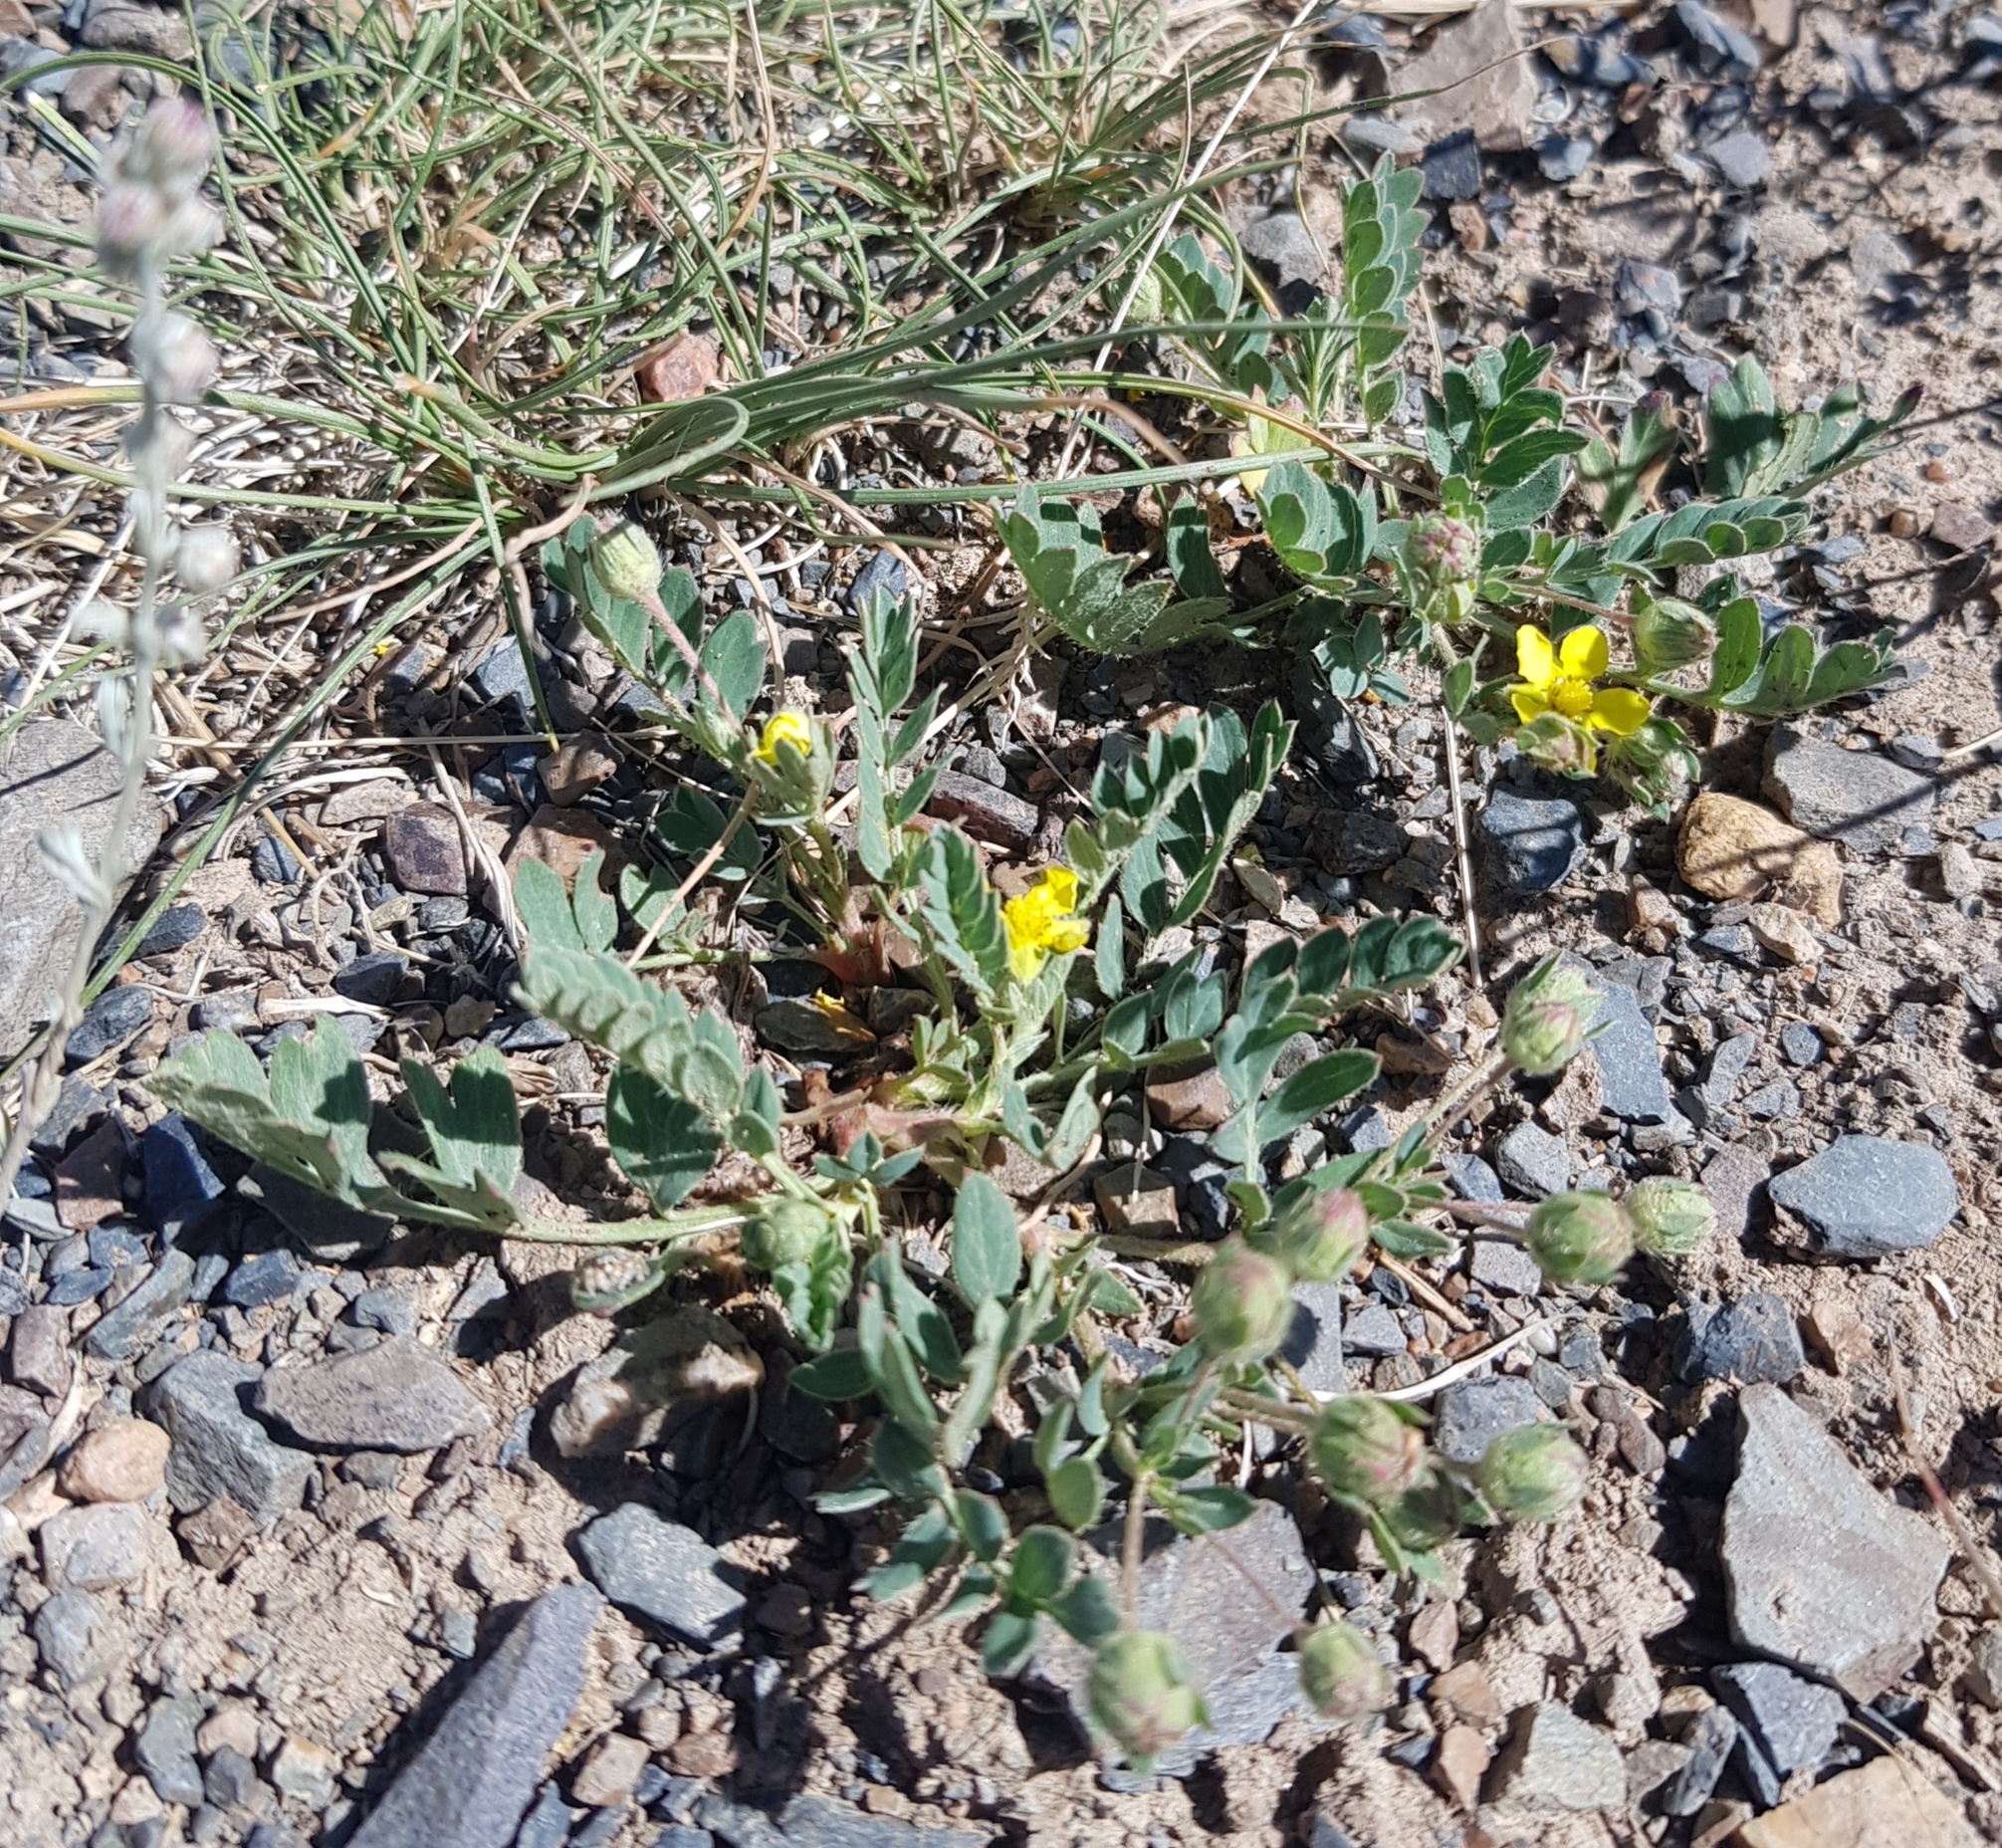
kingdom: Plantae
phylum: Tracheophyta
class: Magnoliopsida
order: Rosales
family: Rosaceae
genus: Sibbaldianthe
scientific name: Sibbaldianthe bifurca
